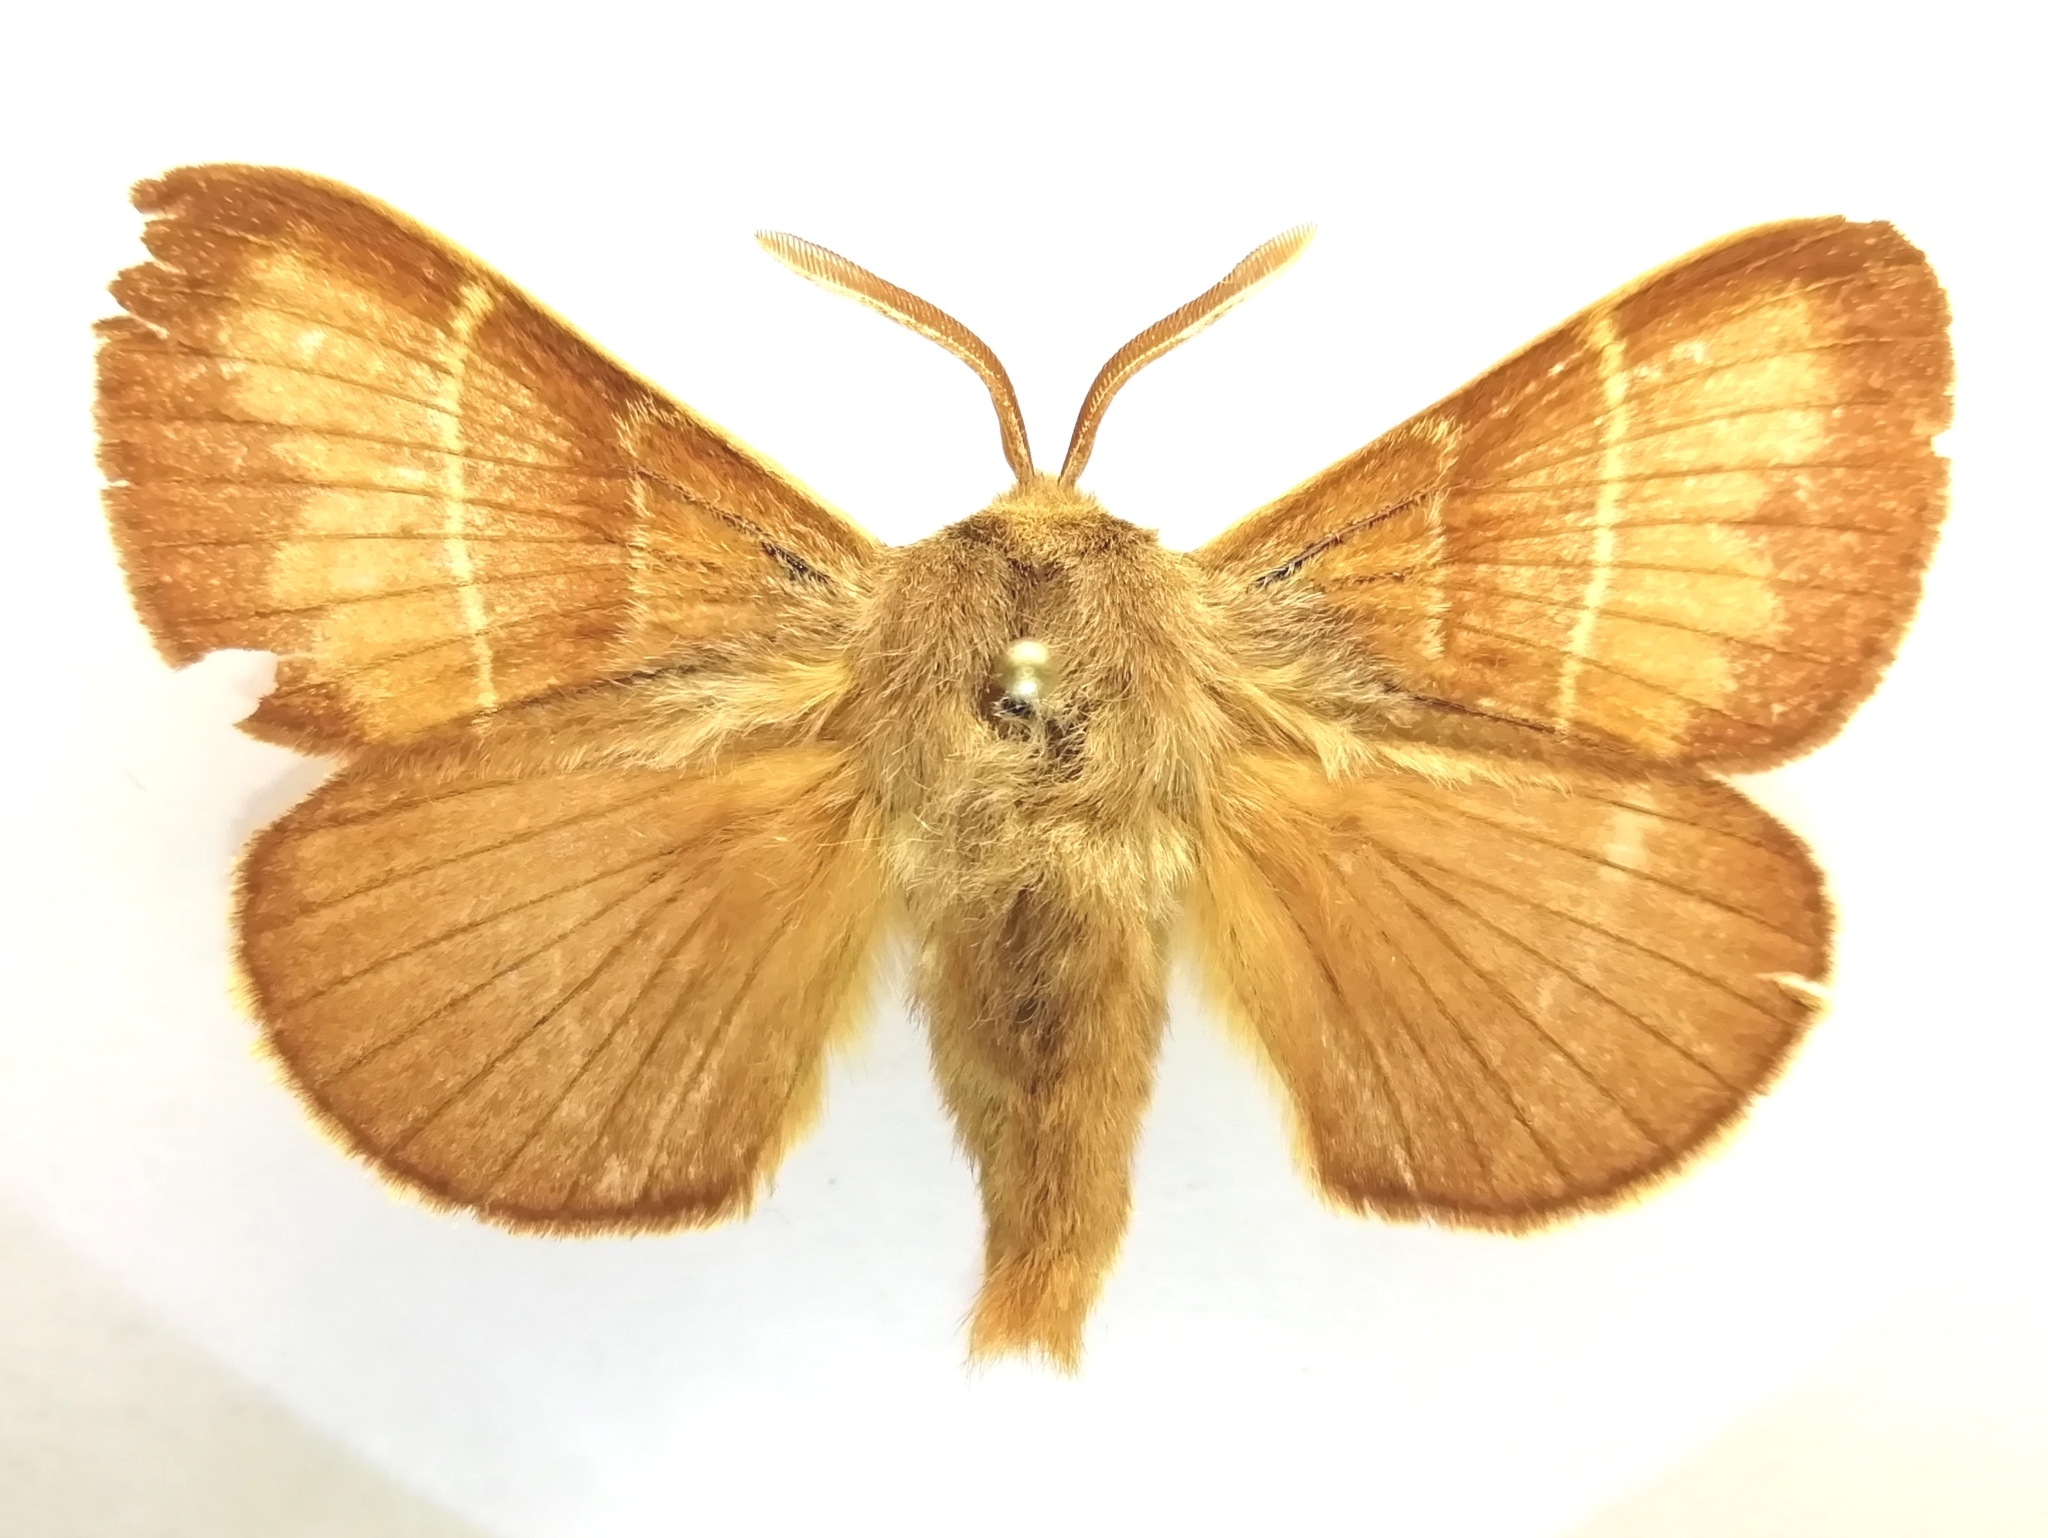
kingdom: Animalia
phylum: Arthropoda
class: Insecta
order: Lepidoptera
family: Lasiocampidae
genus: Macrothylacia
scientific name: Macrothylacia rubi
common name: Fox moth
